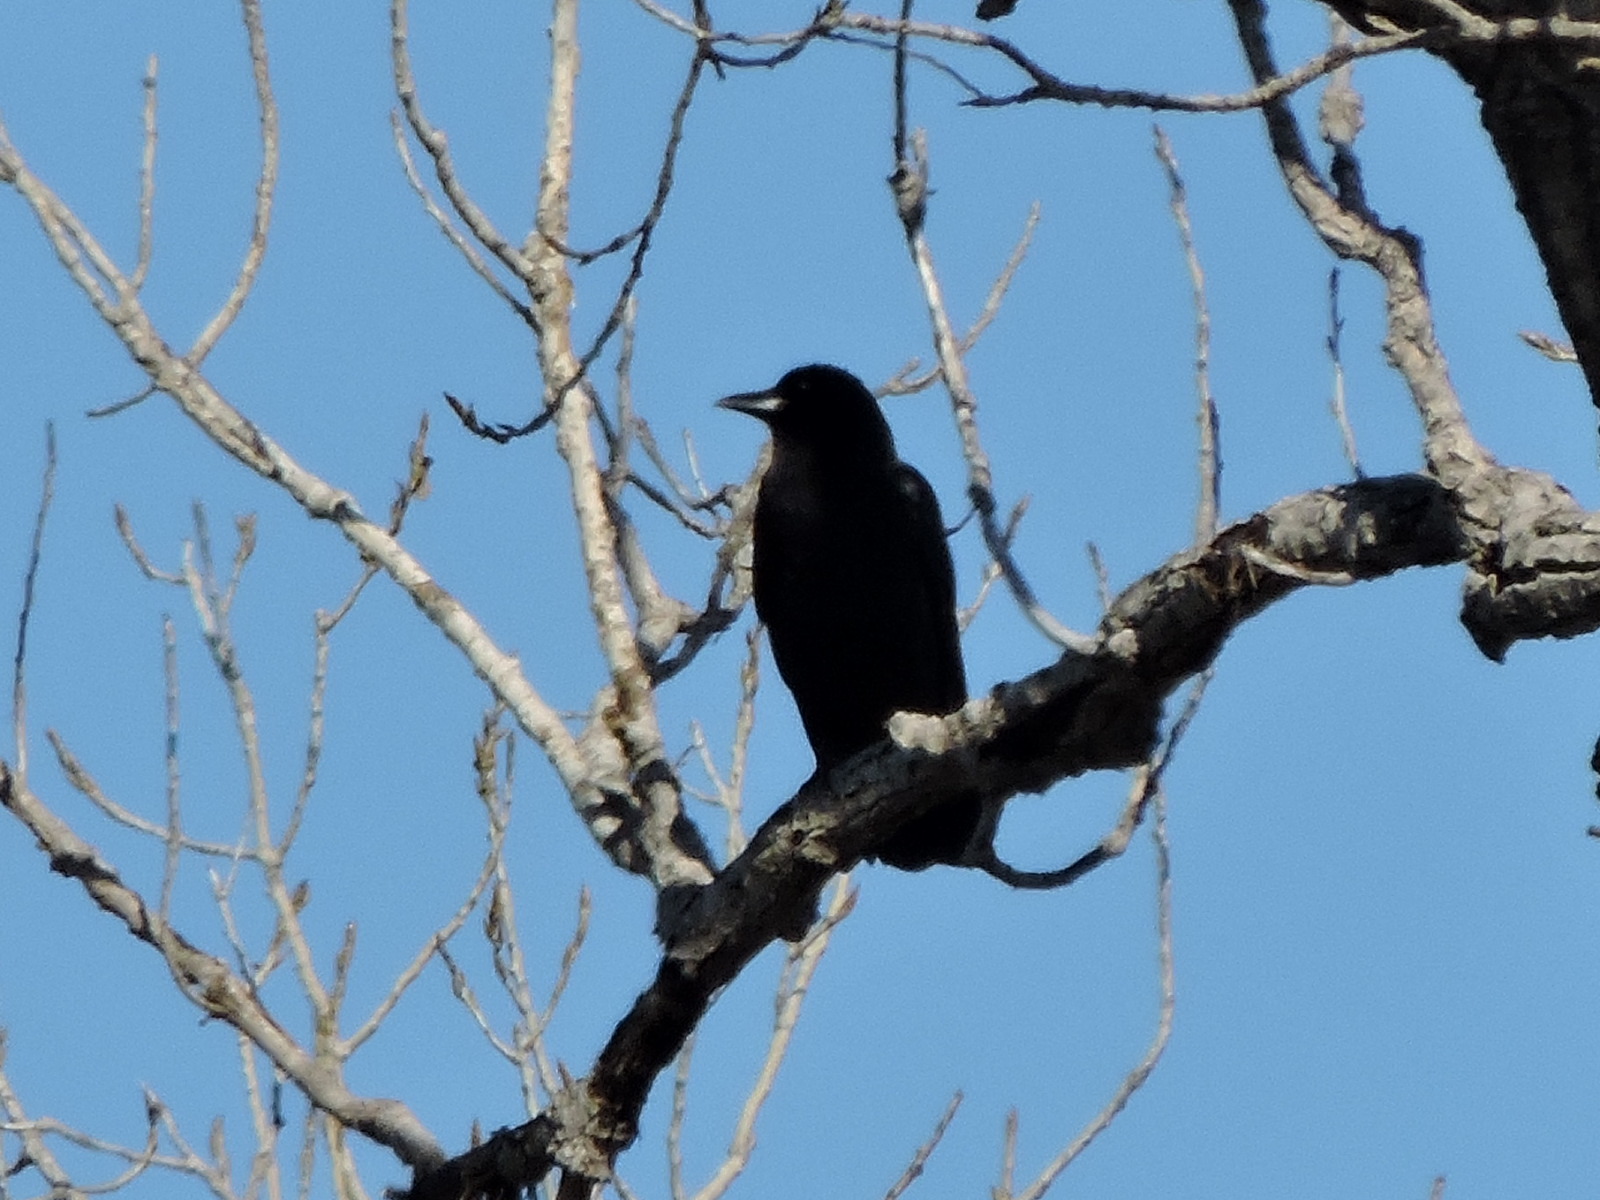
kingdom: Animalia
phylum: Chordata
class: Aves
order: Passeriformes
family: Corvidae
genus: Corvus
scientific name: Corvus brachyrhynchos
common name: American crow
